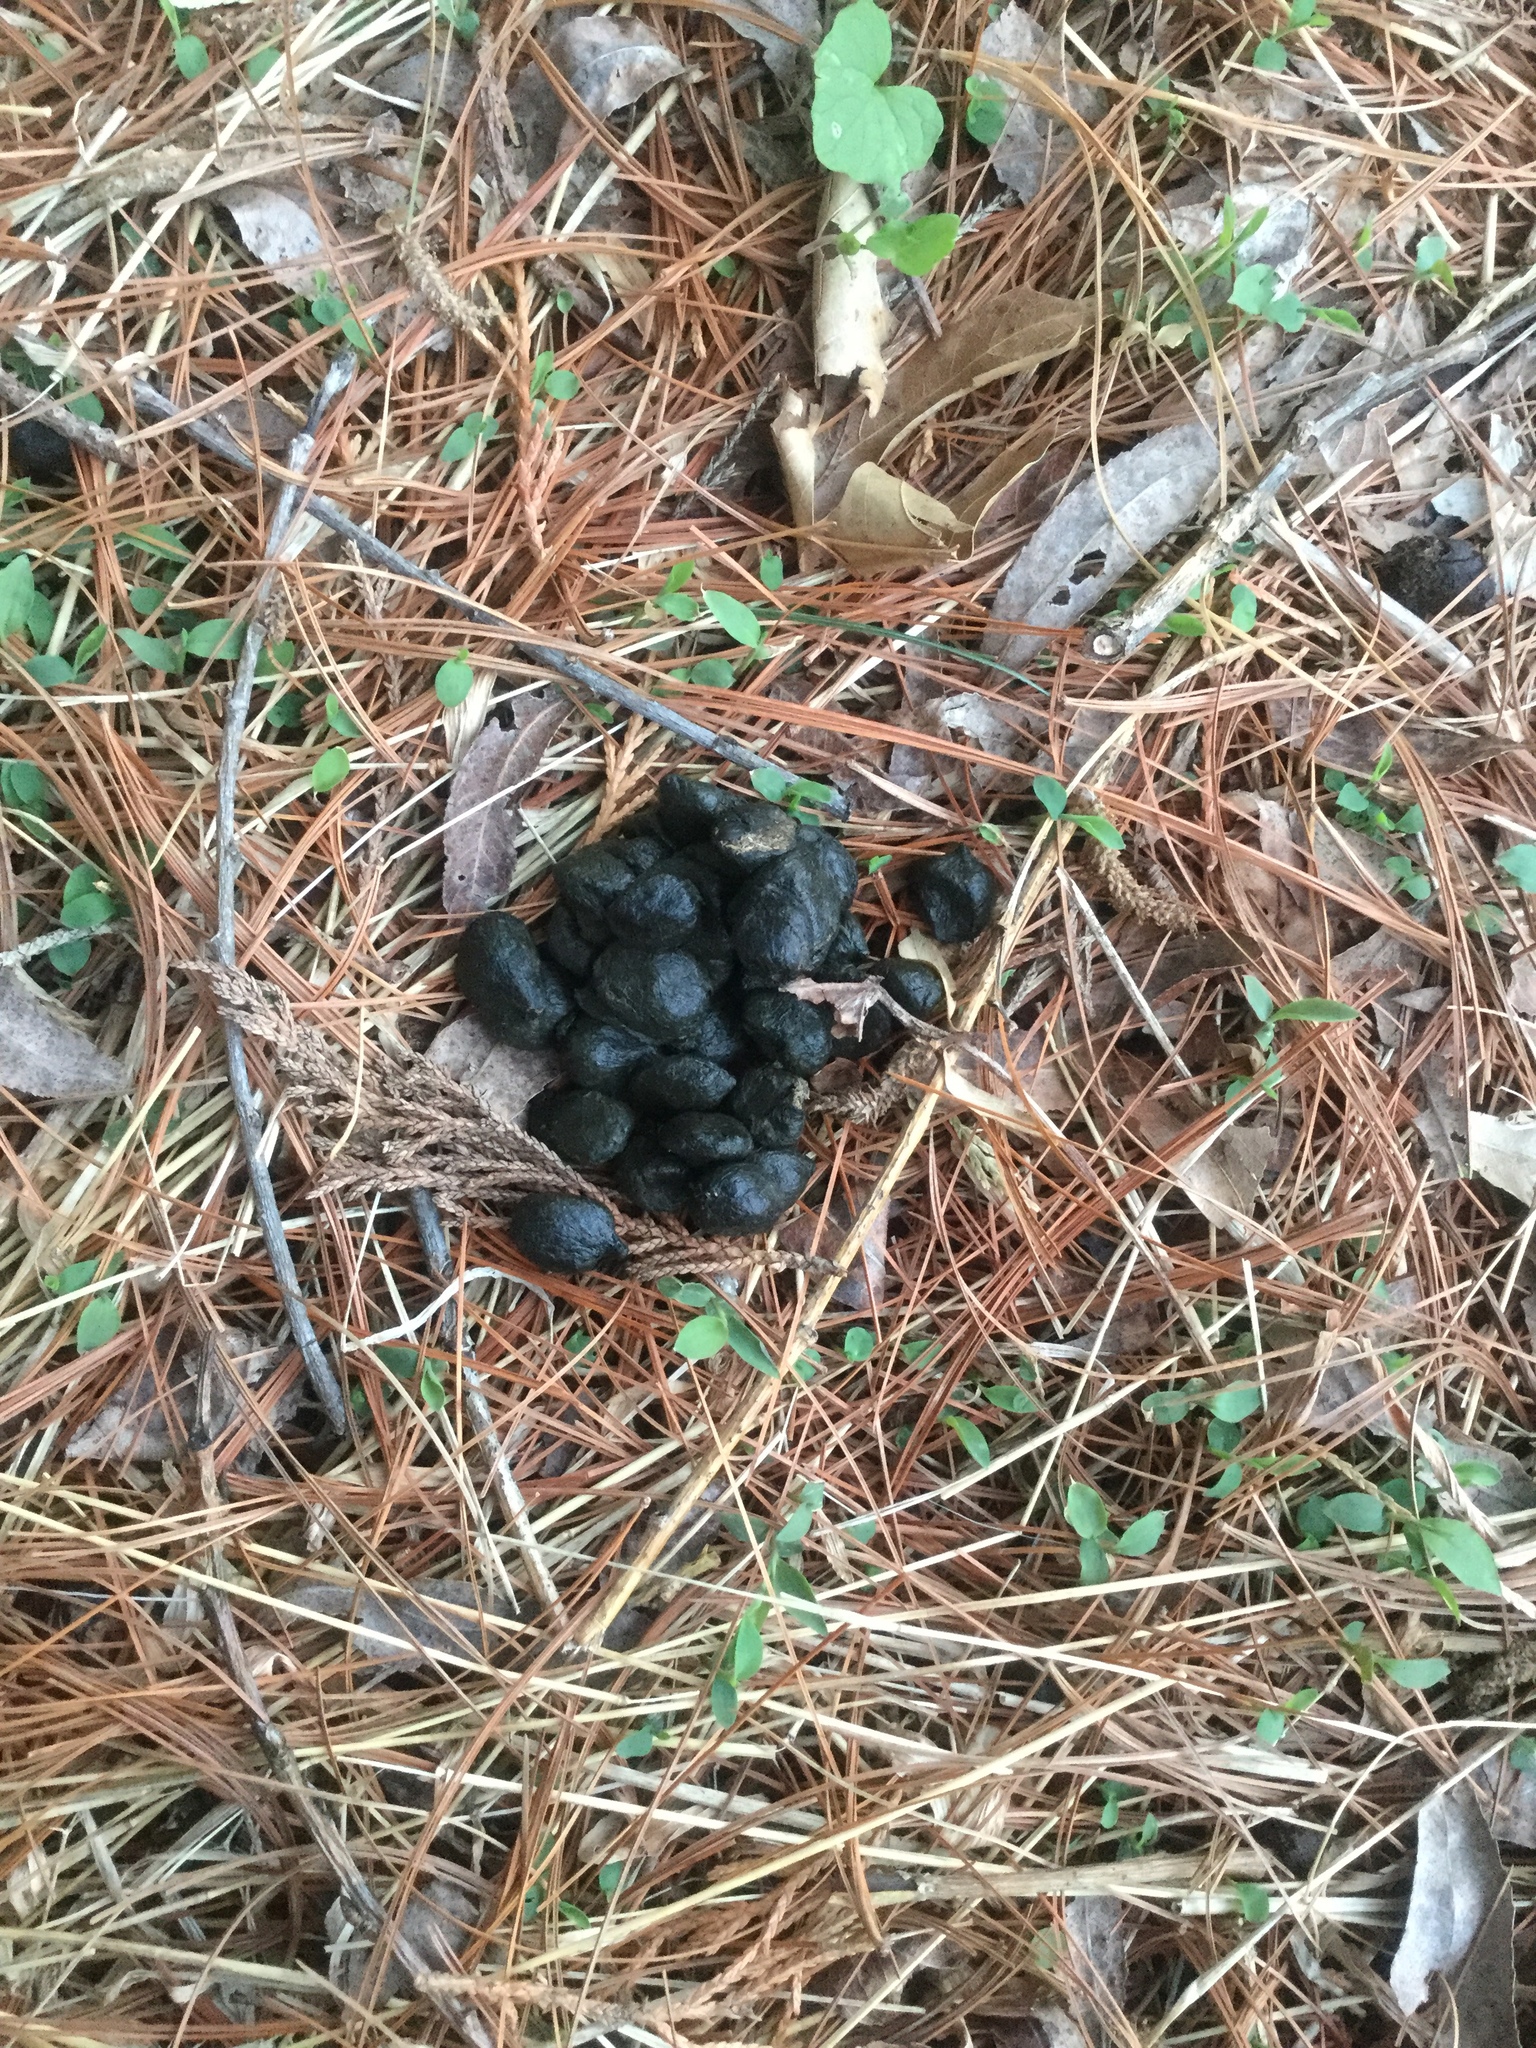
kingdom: Animalia
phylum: Chordata
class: Mammalia
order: Artiodactyla
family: Cervidae
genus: Odocoileus
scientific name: Odocoileus virginianus
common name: White-tailed deer
